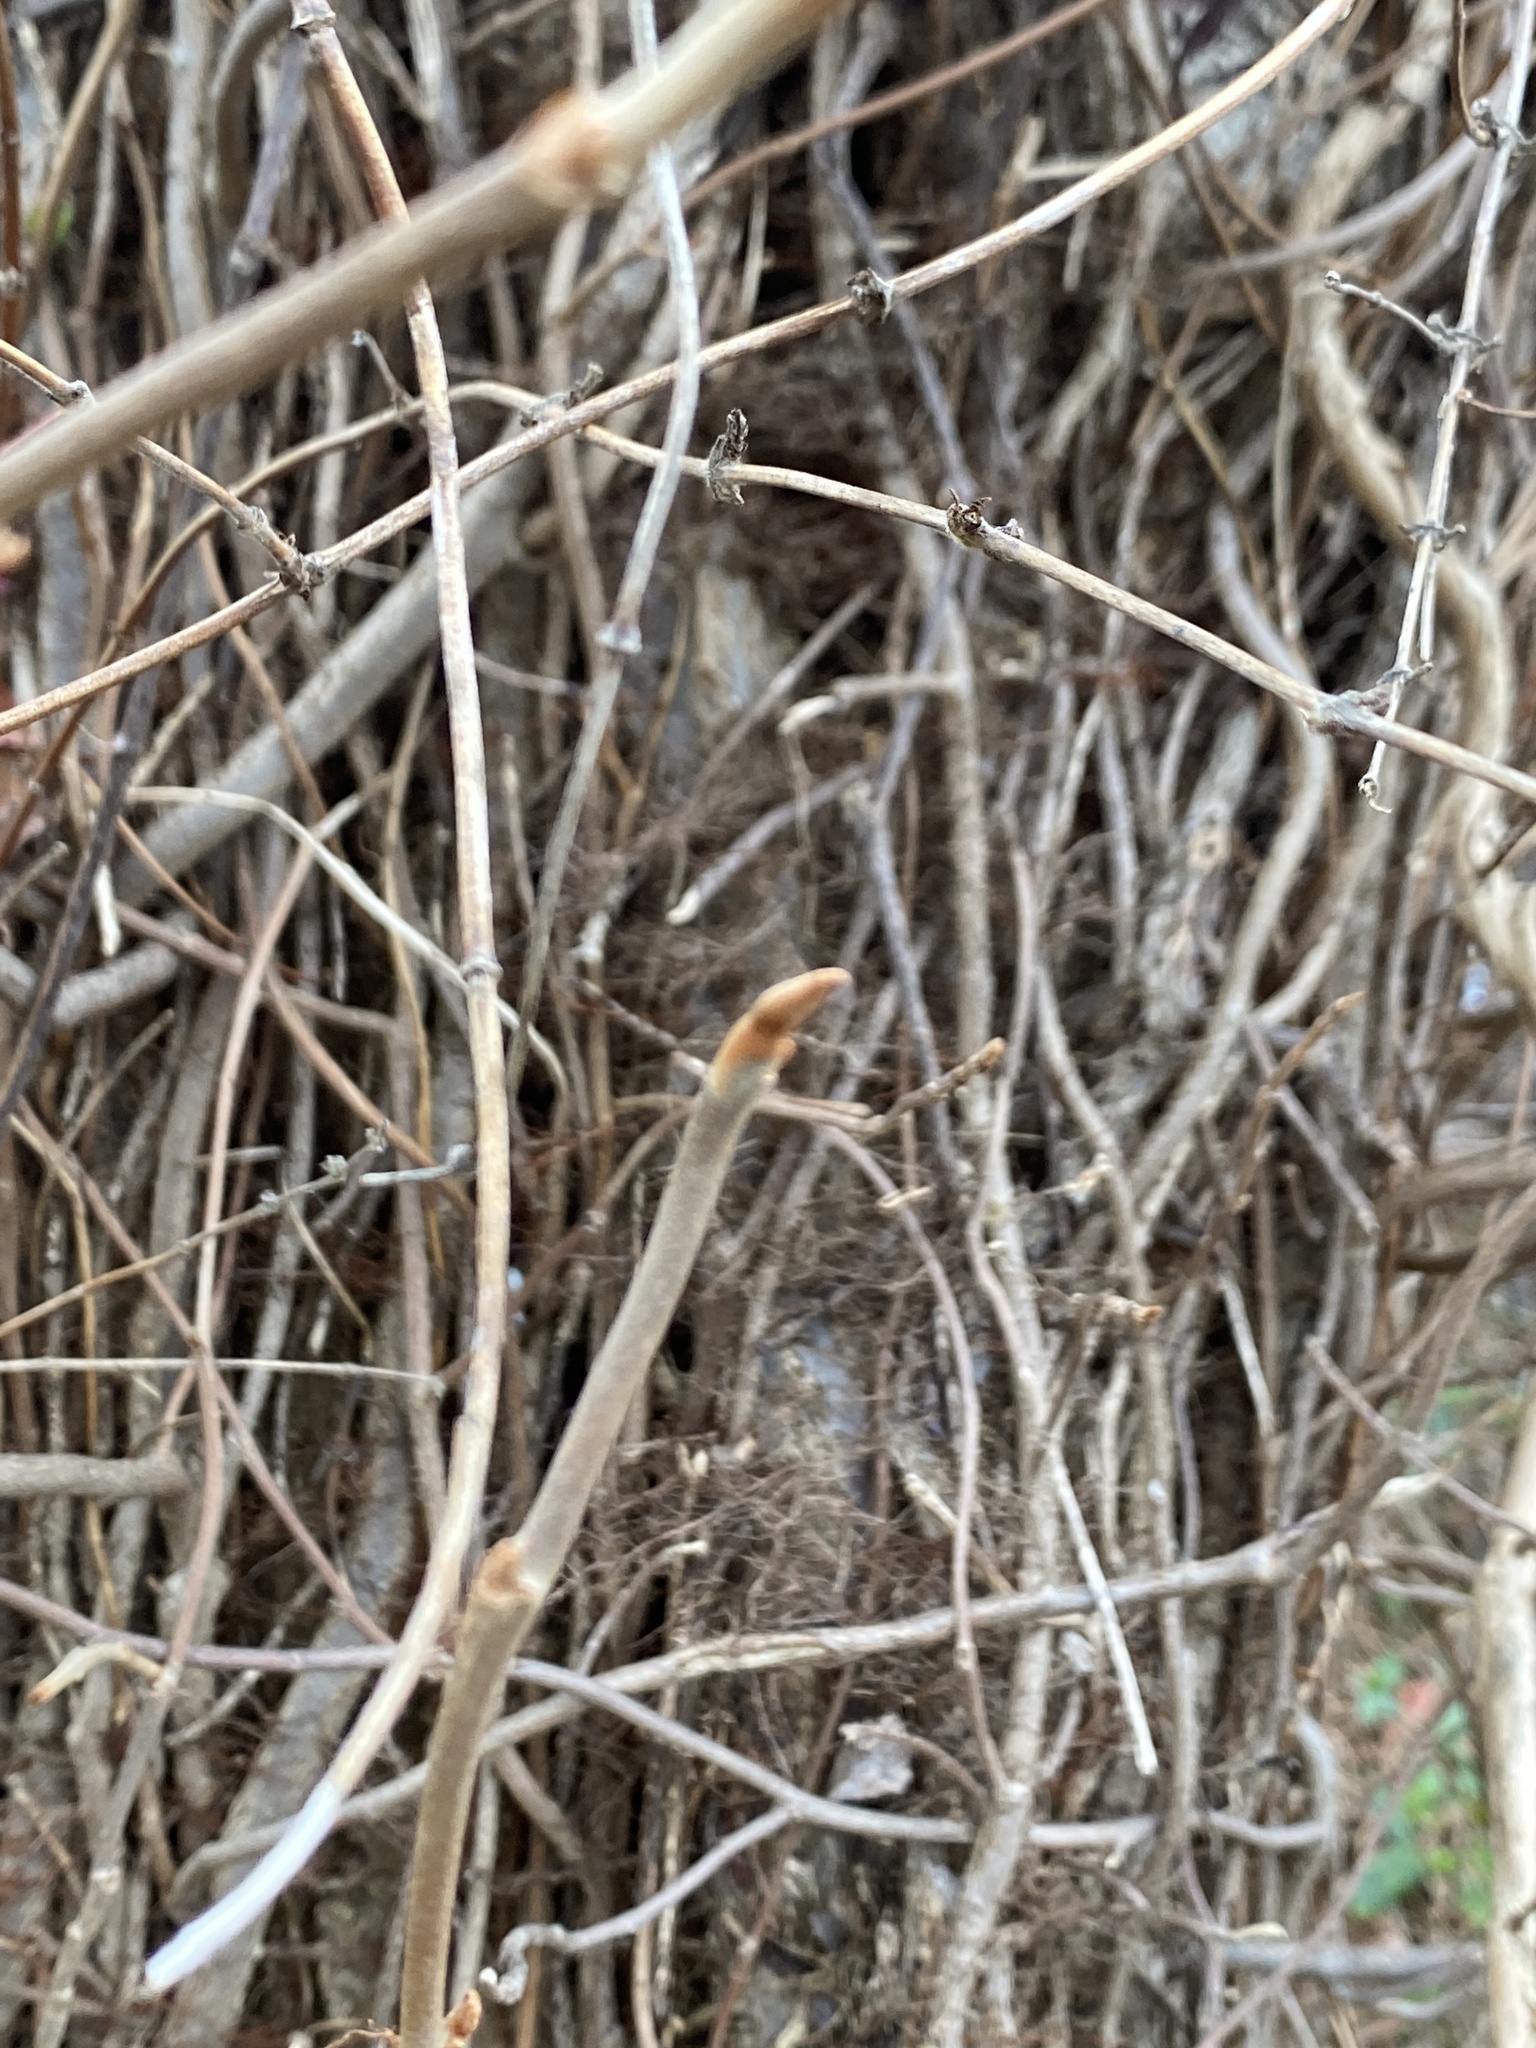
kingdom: Plantae
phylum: Tracheophyta
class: Magnoliopsida
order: Sapindales
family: Anacardiaceae
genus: Toxicodendron
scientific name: Toxicodendron radicans
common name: Poison ivy
